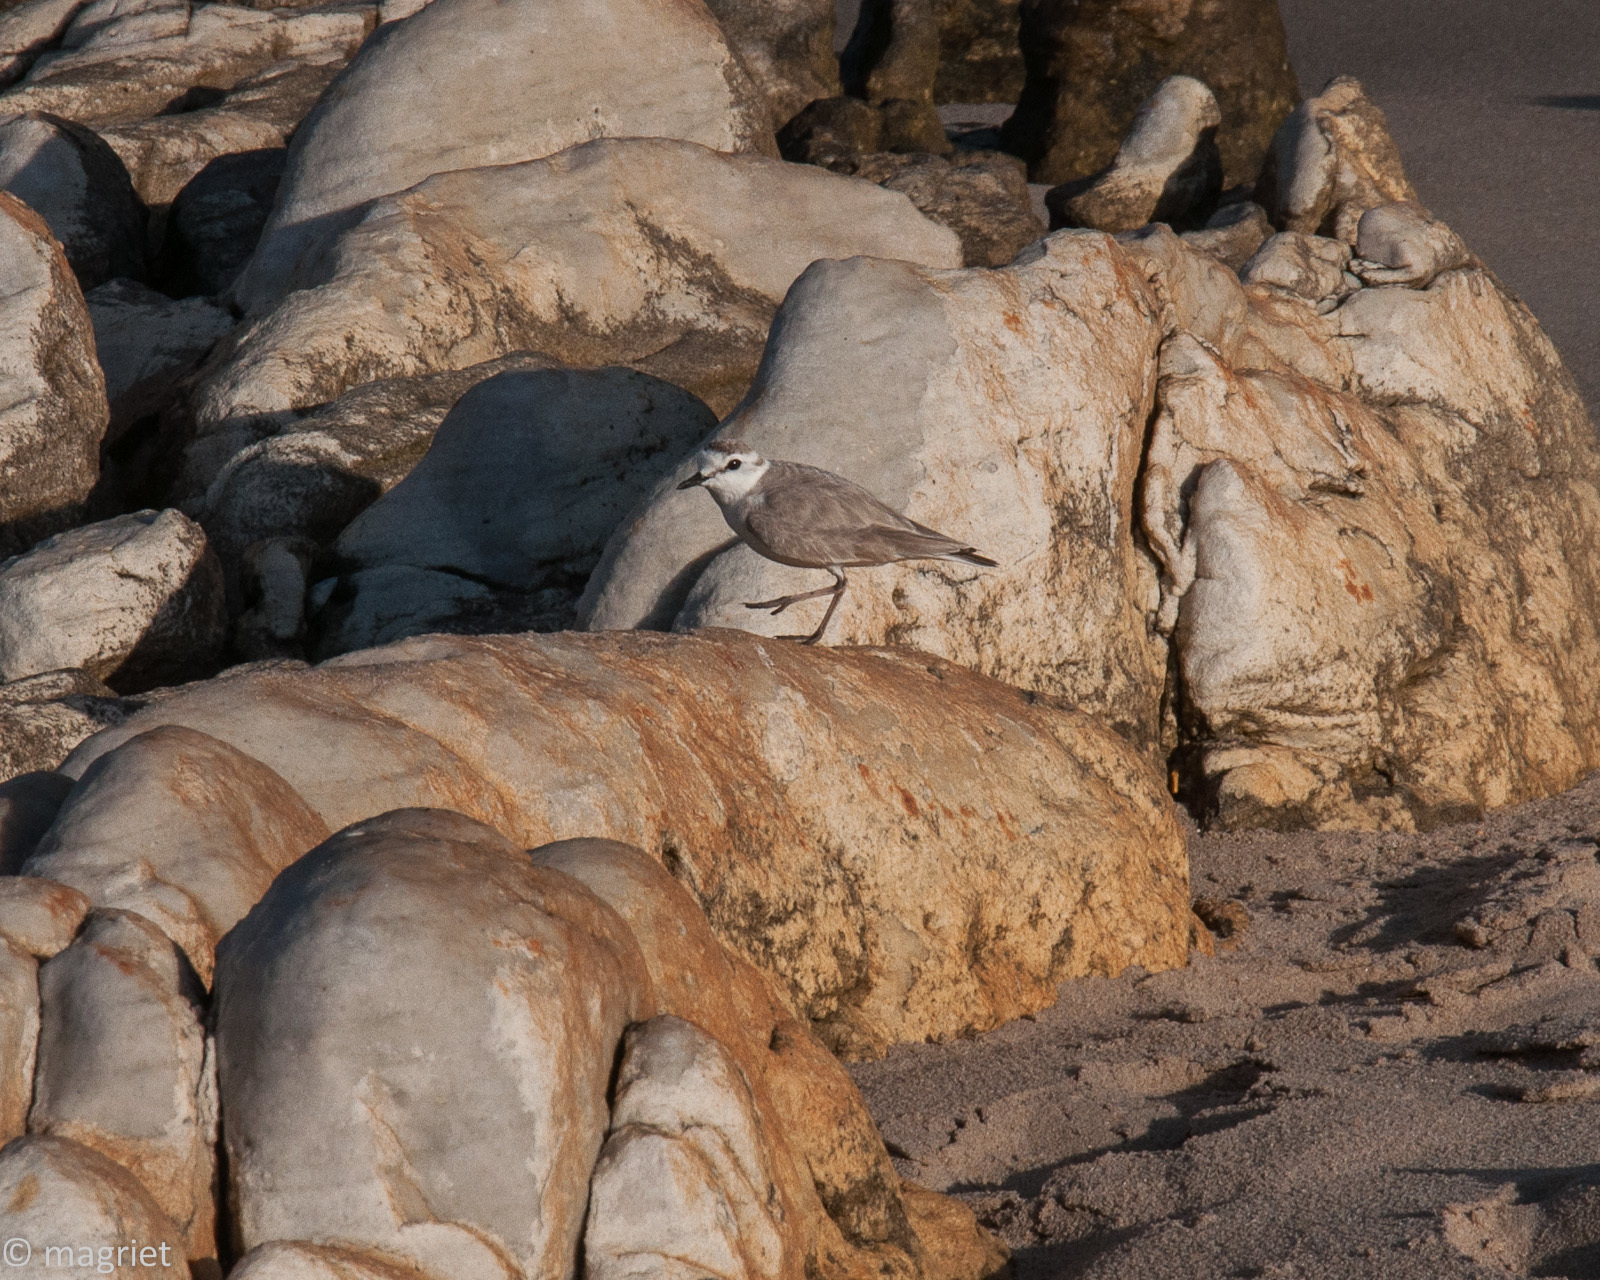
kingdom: Animalia
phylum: Chordata
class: Aves
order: Charadriiformes
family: Charadriidae
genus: Anarhynchus
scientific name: Anarhynchus
